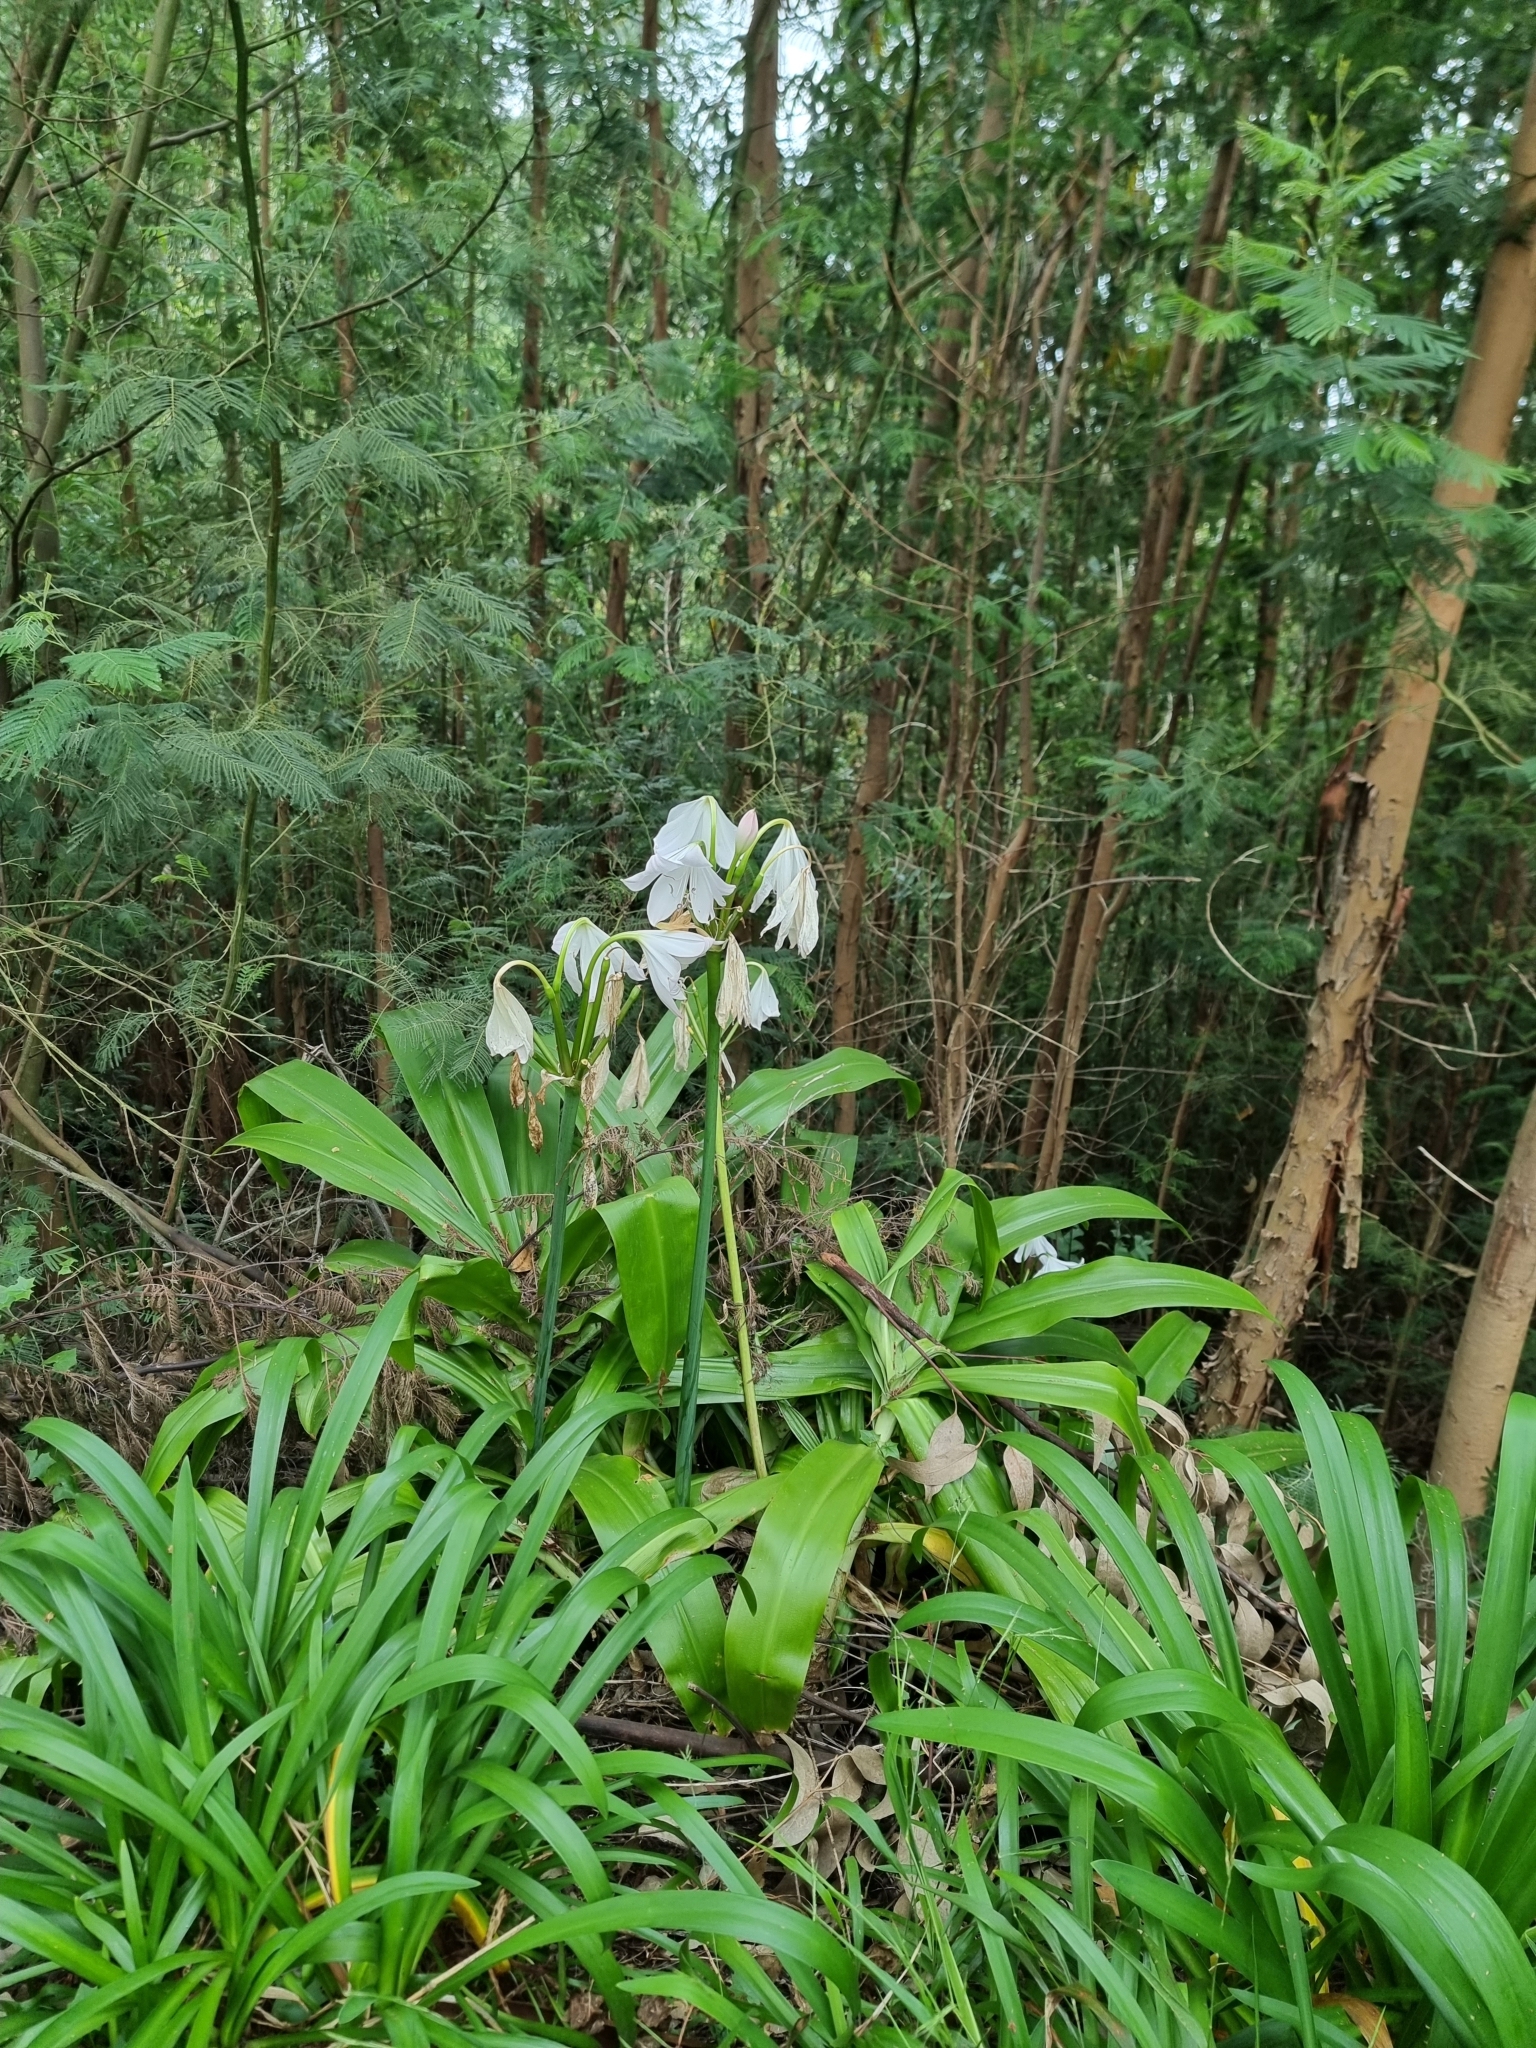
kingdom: Plantae
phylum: Tracheophyta
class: Liliopsida
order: Asparagales
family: Amaryllidaceae
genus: Crinum
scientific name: Crinum moorei
